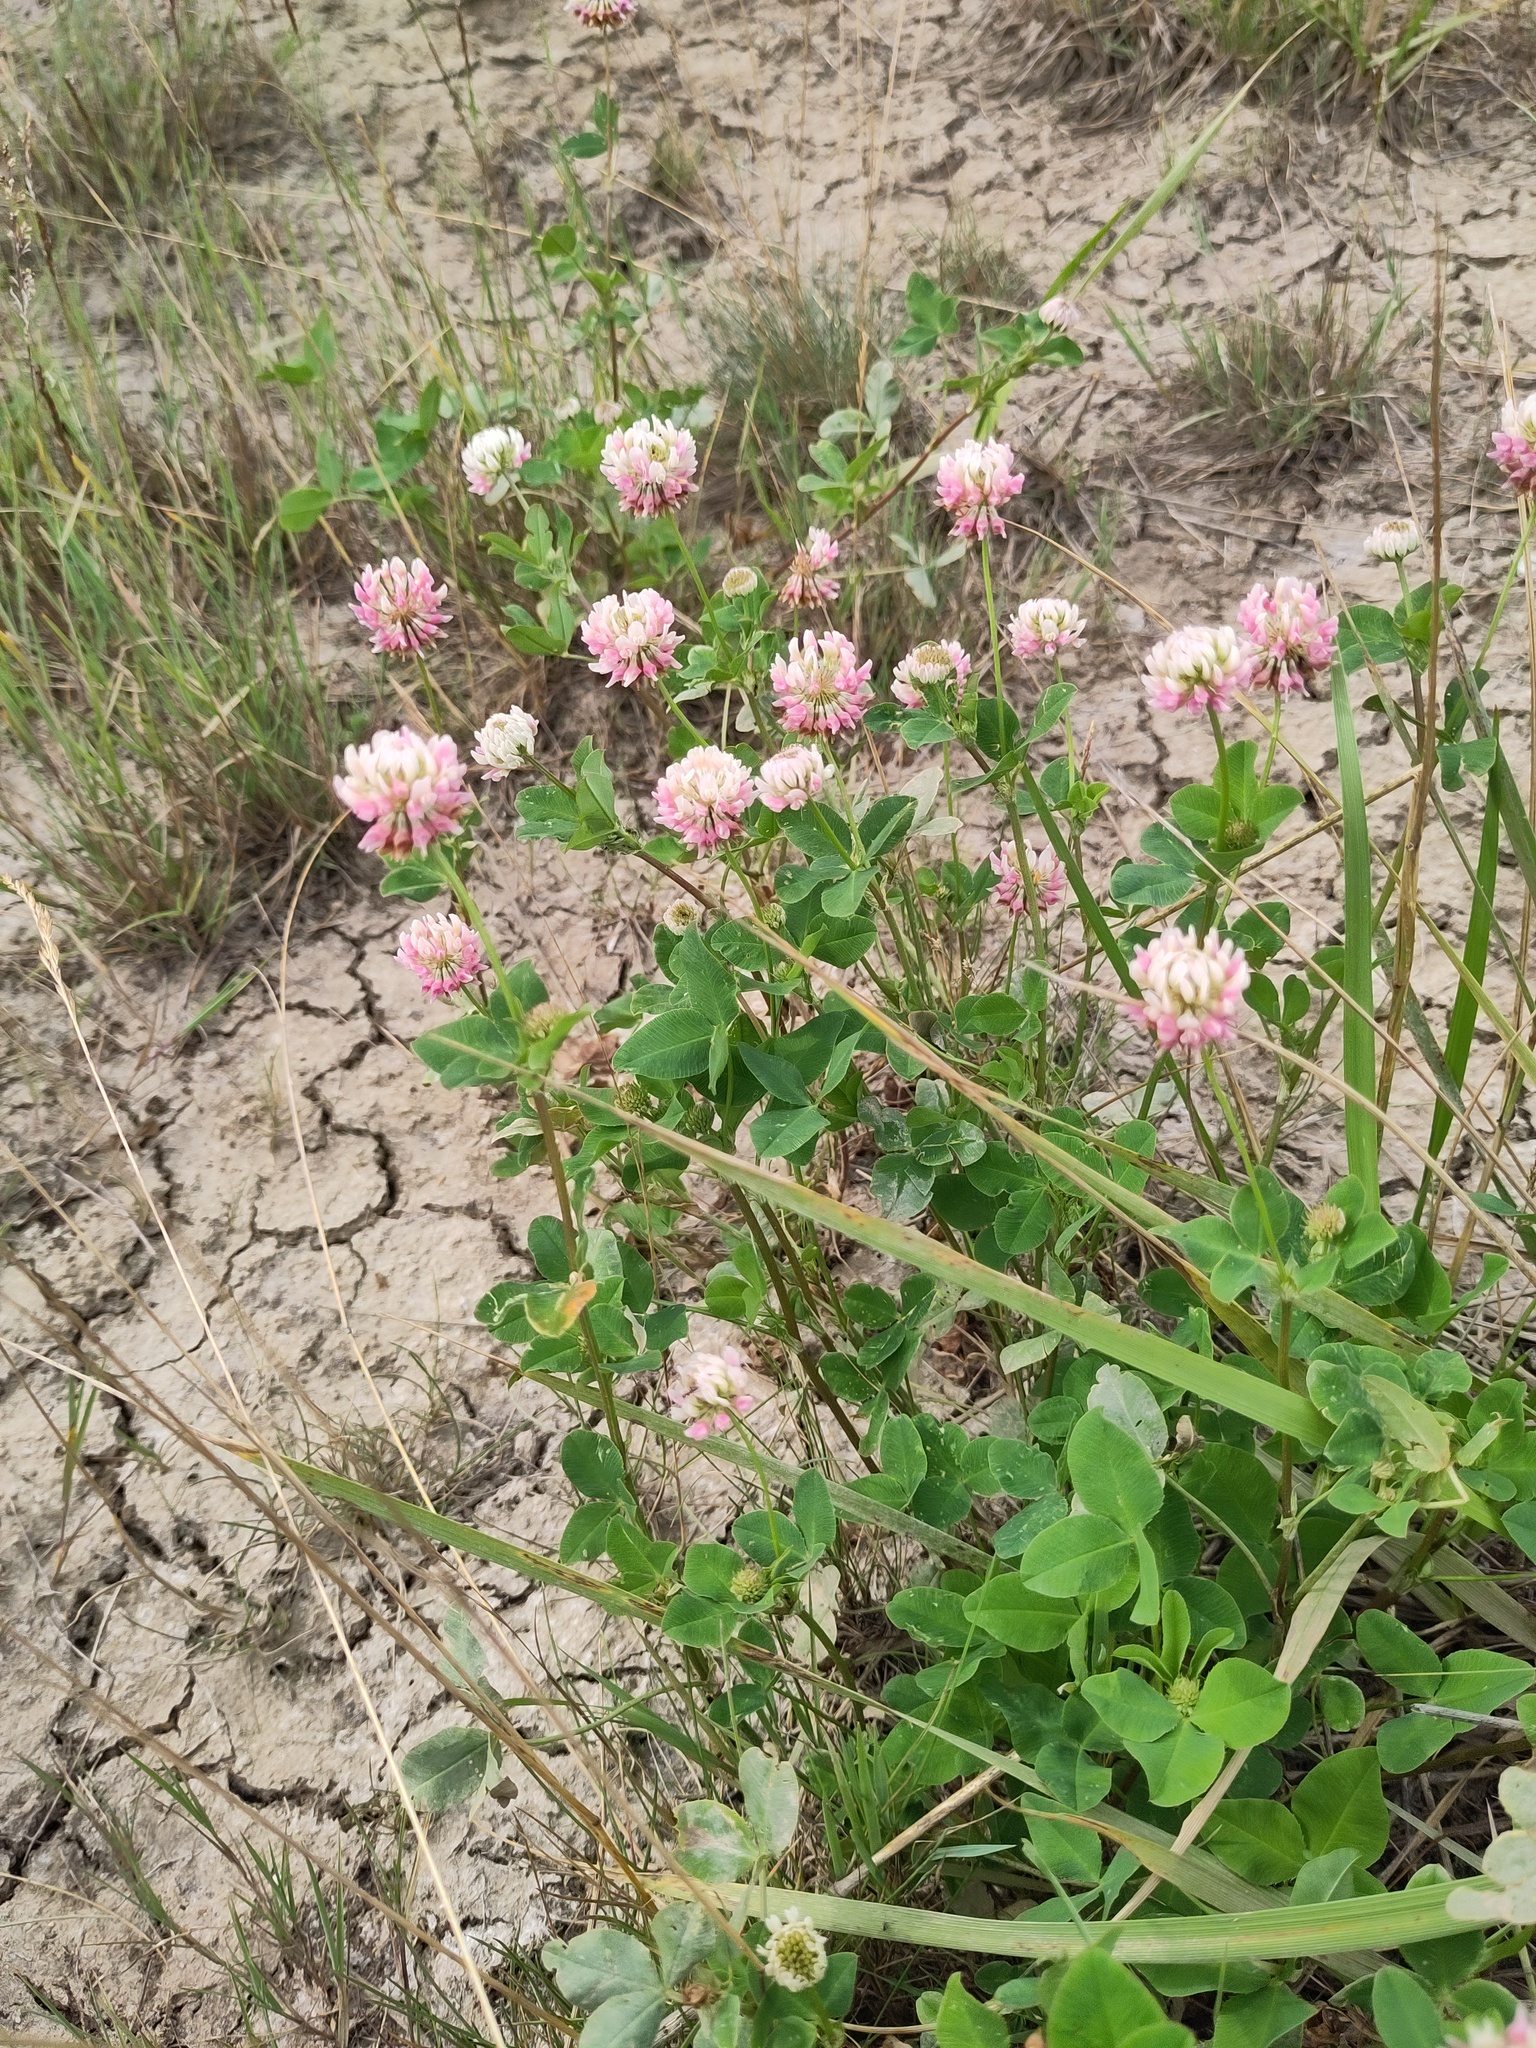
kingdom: Plantae
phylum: Tracheophyta
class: Magnoliopsida
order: Fabales
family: Fabaceae
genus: Trifolium
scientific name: Trifolium hybridum
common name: Alsike clover
